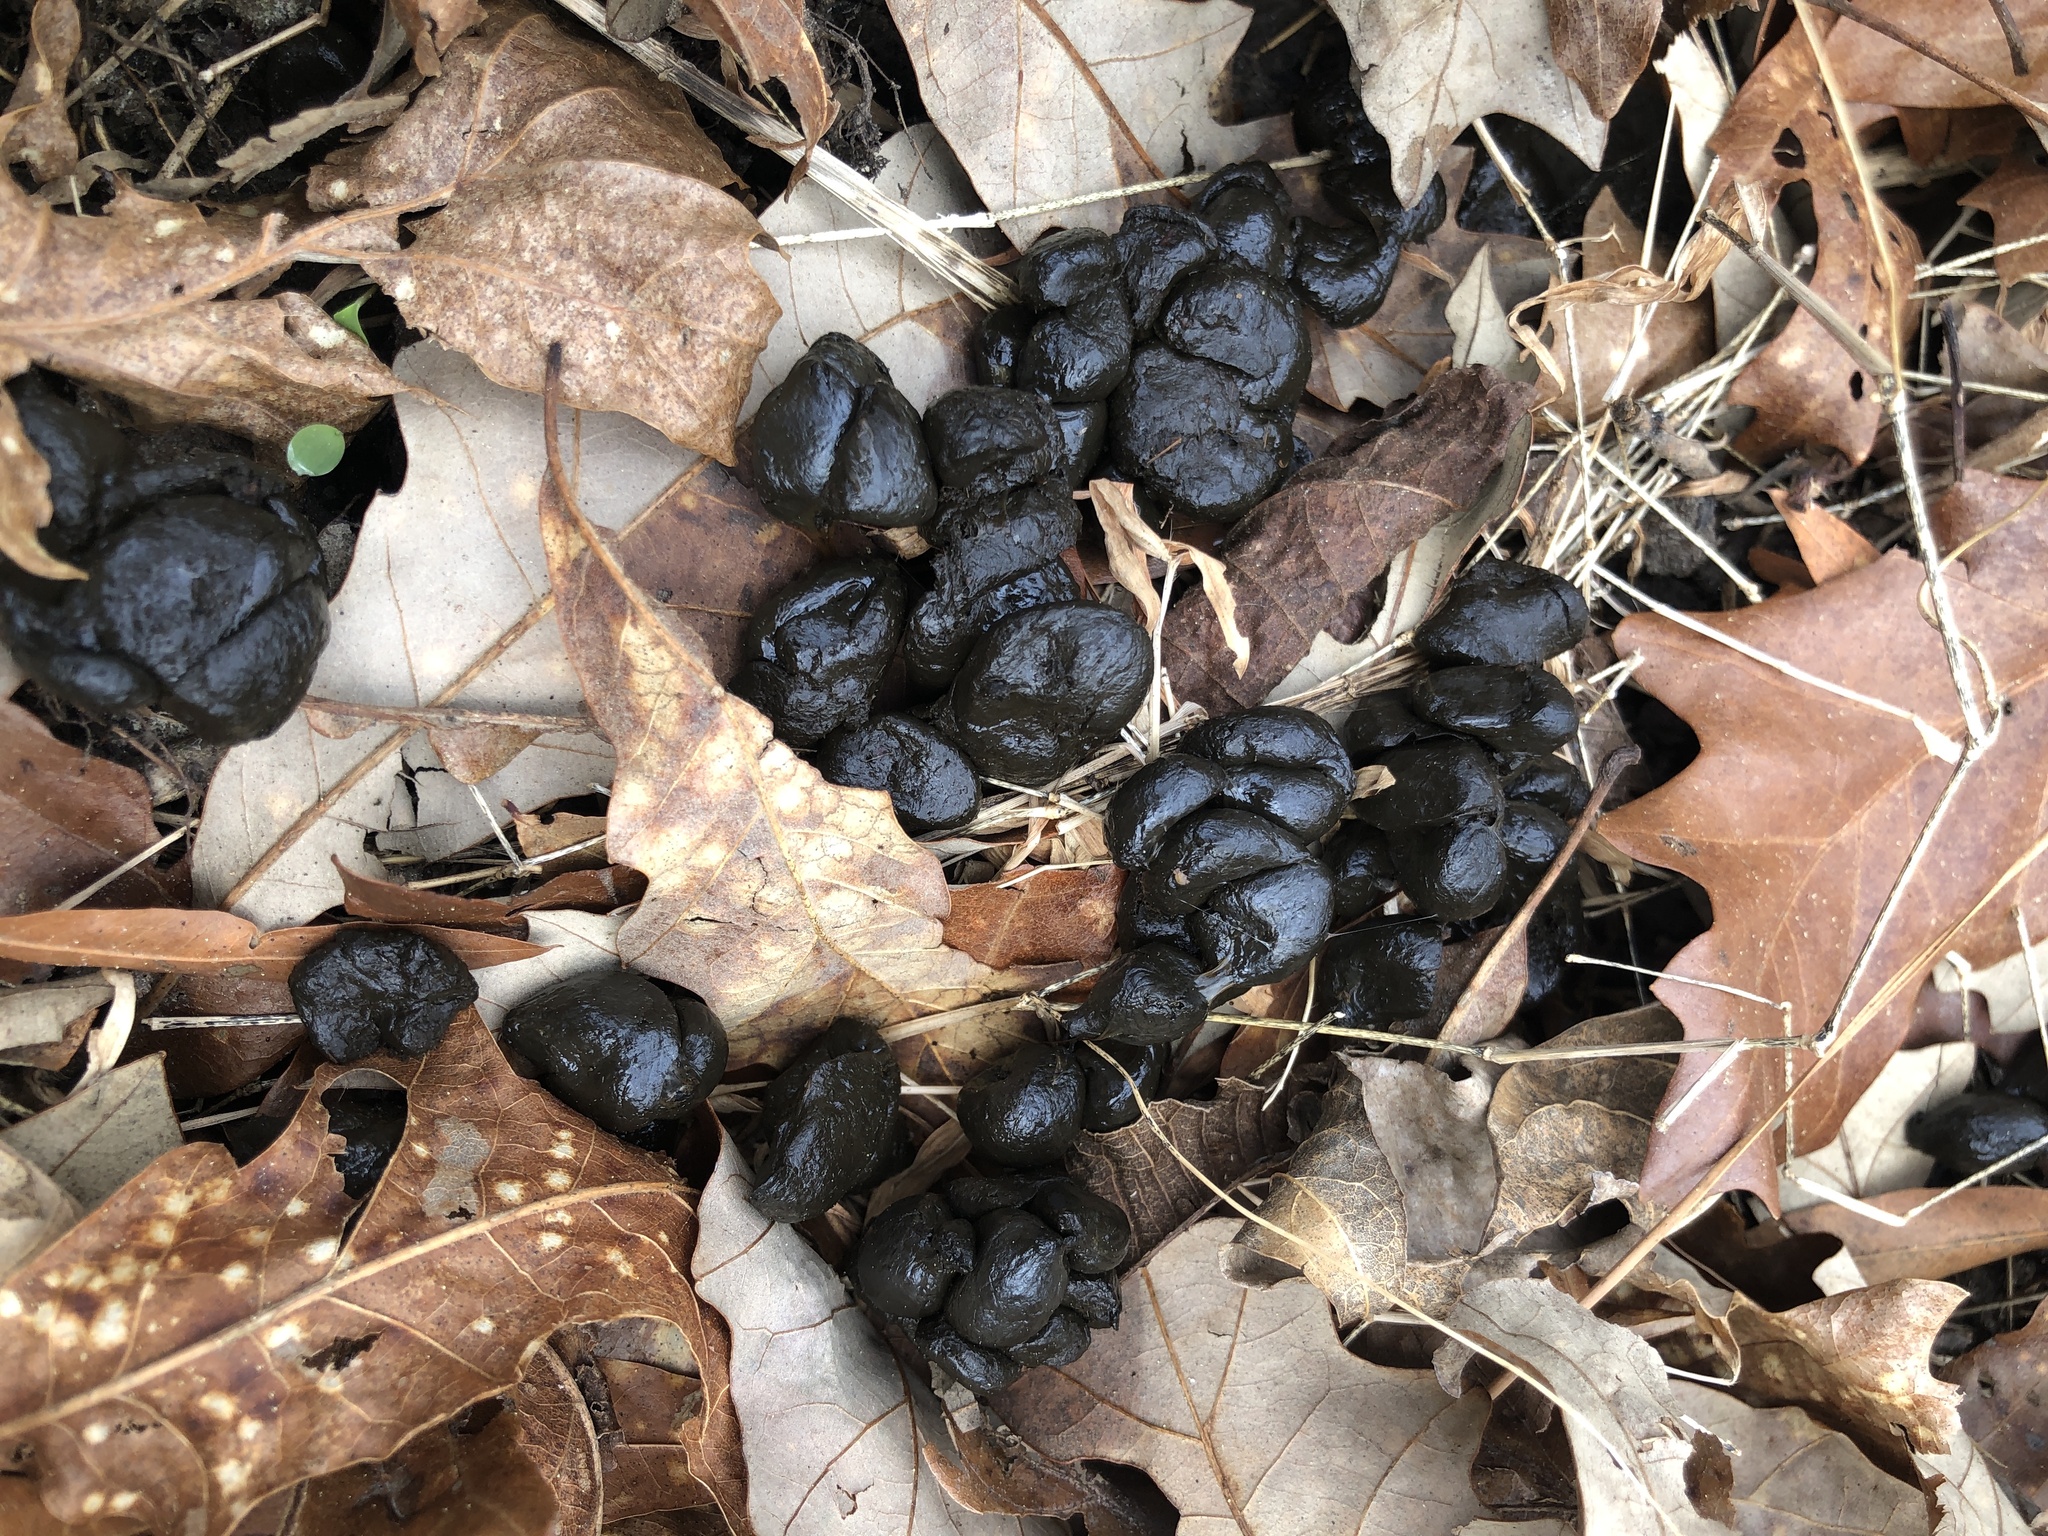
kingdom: Animalia
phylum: Chordata
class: Mammalia
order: Artiodactyla
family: Cervidae
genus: Odocoileus
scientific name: Odocoileus virginianus
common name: White-tailed deer
